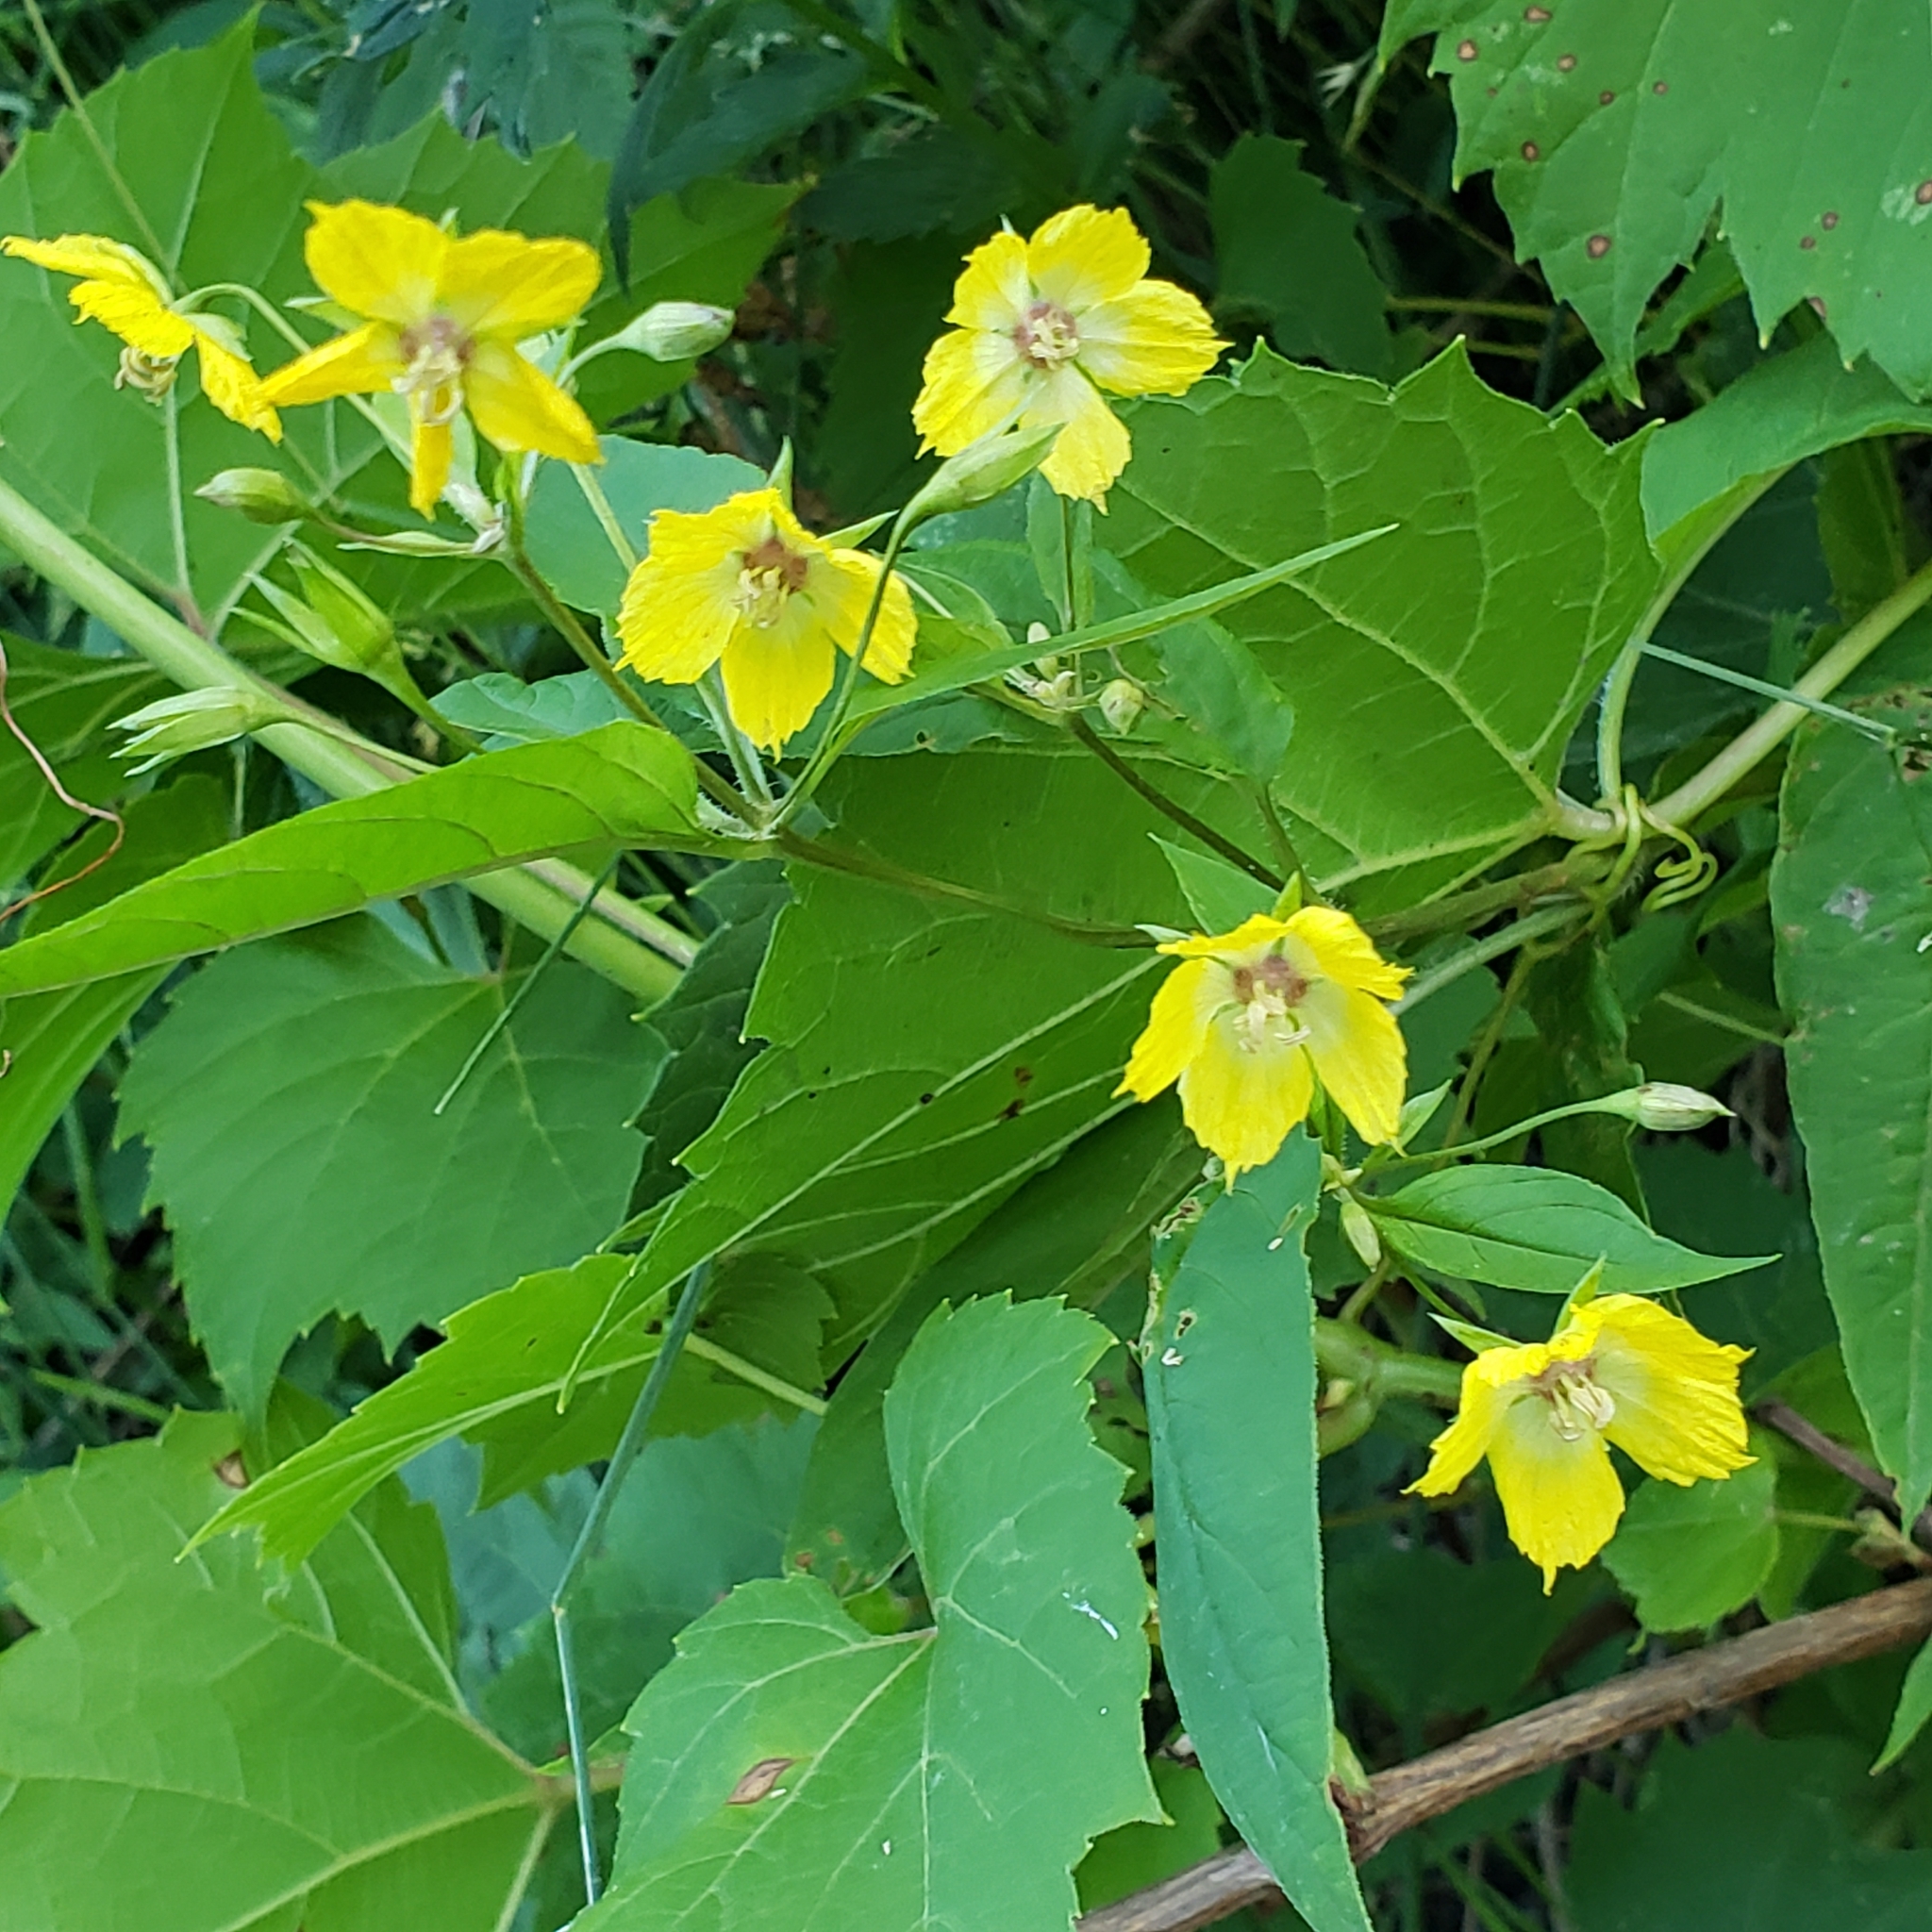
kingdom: Plantae
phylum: Tracheophyta
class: Magnoliopsida
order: Ericales
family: Primulaceae
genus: Lysimachia
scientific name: Lysimachia ciliata
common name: Fringed loosestrife
